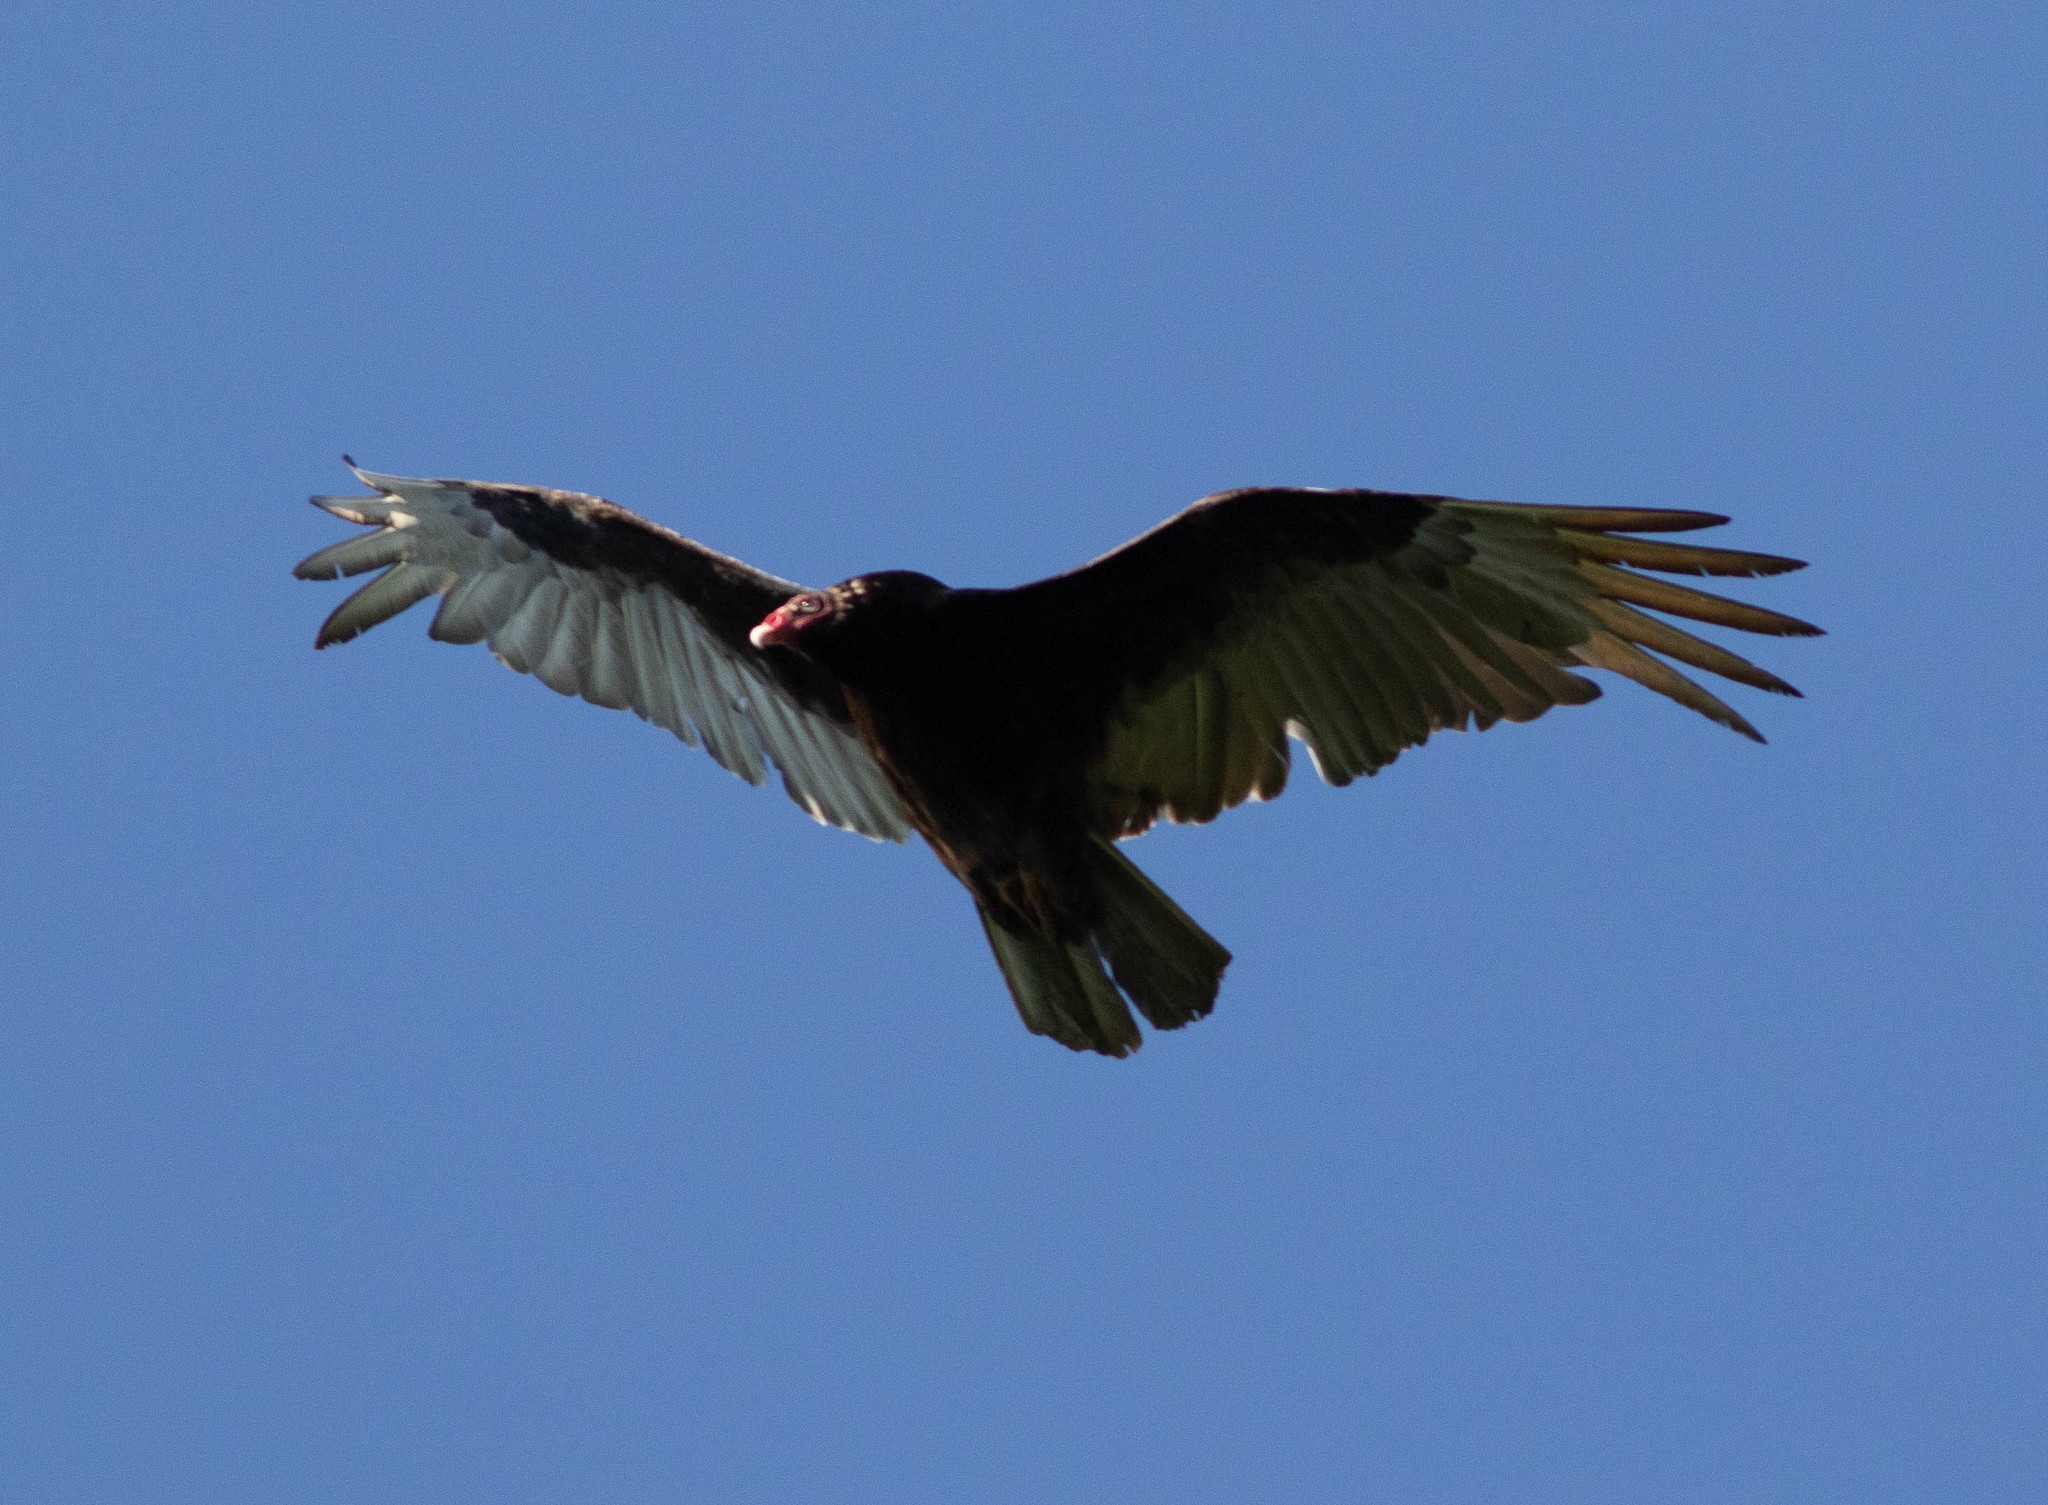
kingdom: Animalia
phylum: Chordata
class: Aves
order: Accipitriformes
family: Cathartidae
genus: Cathartes
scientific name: Cathartes aura
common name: Turkey vulture
